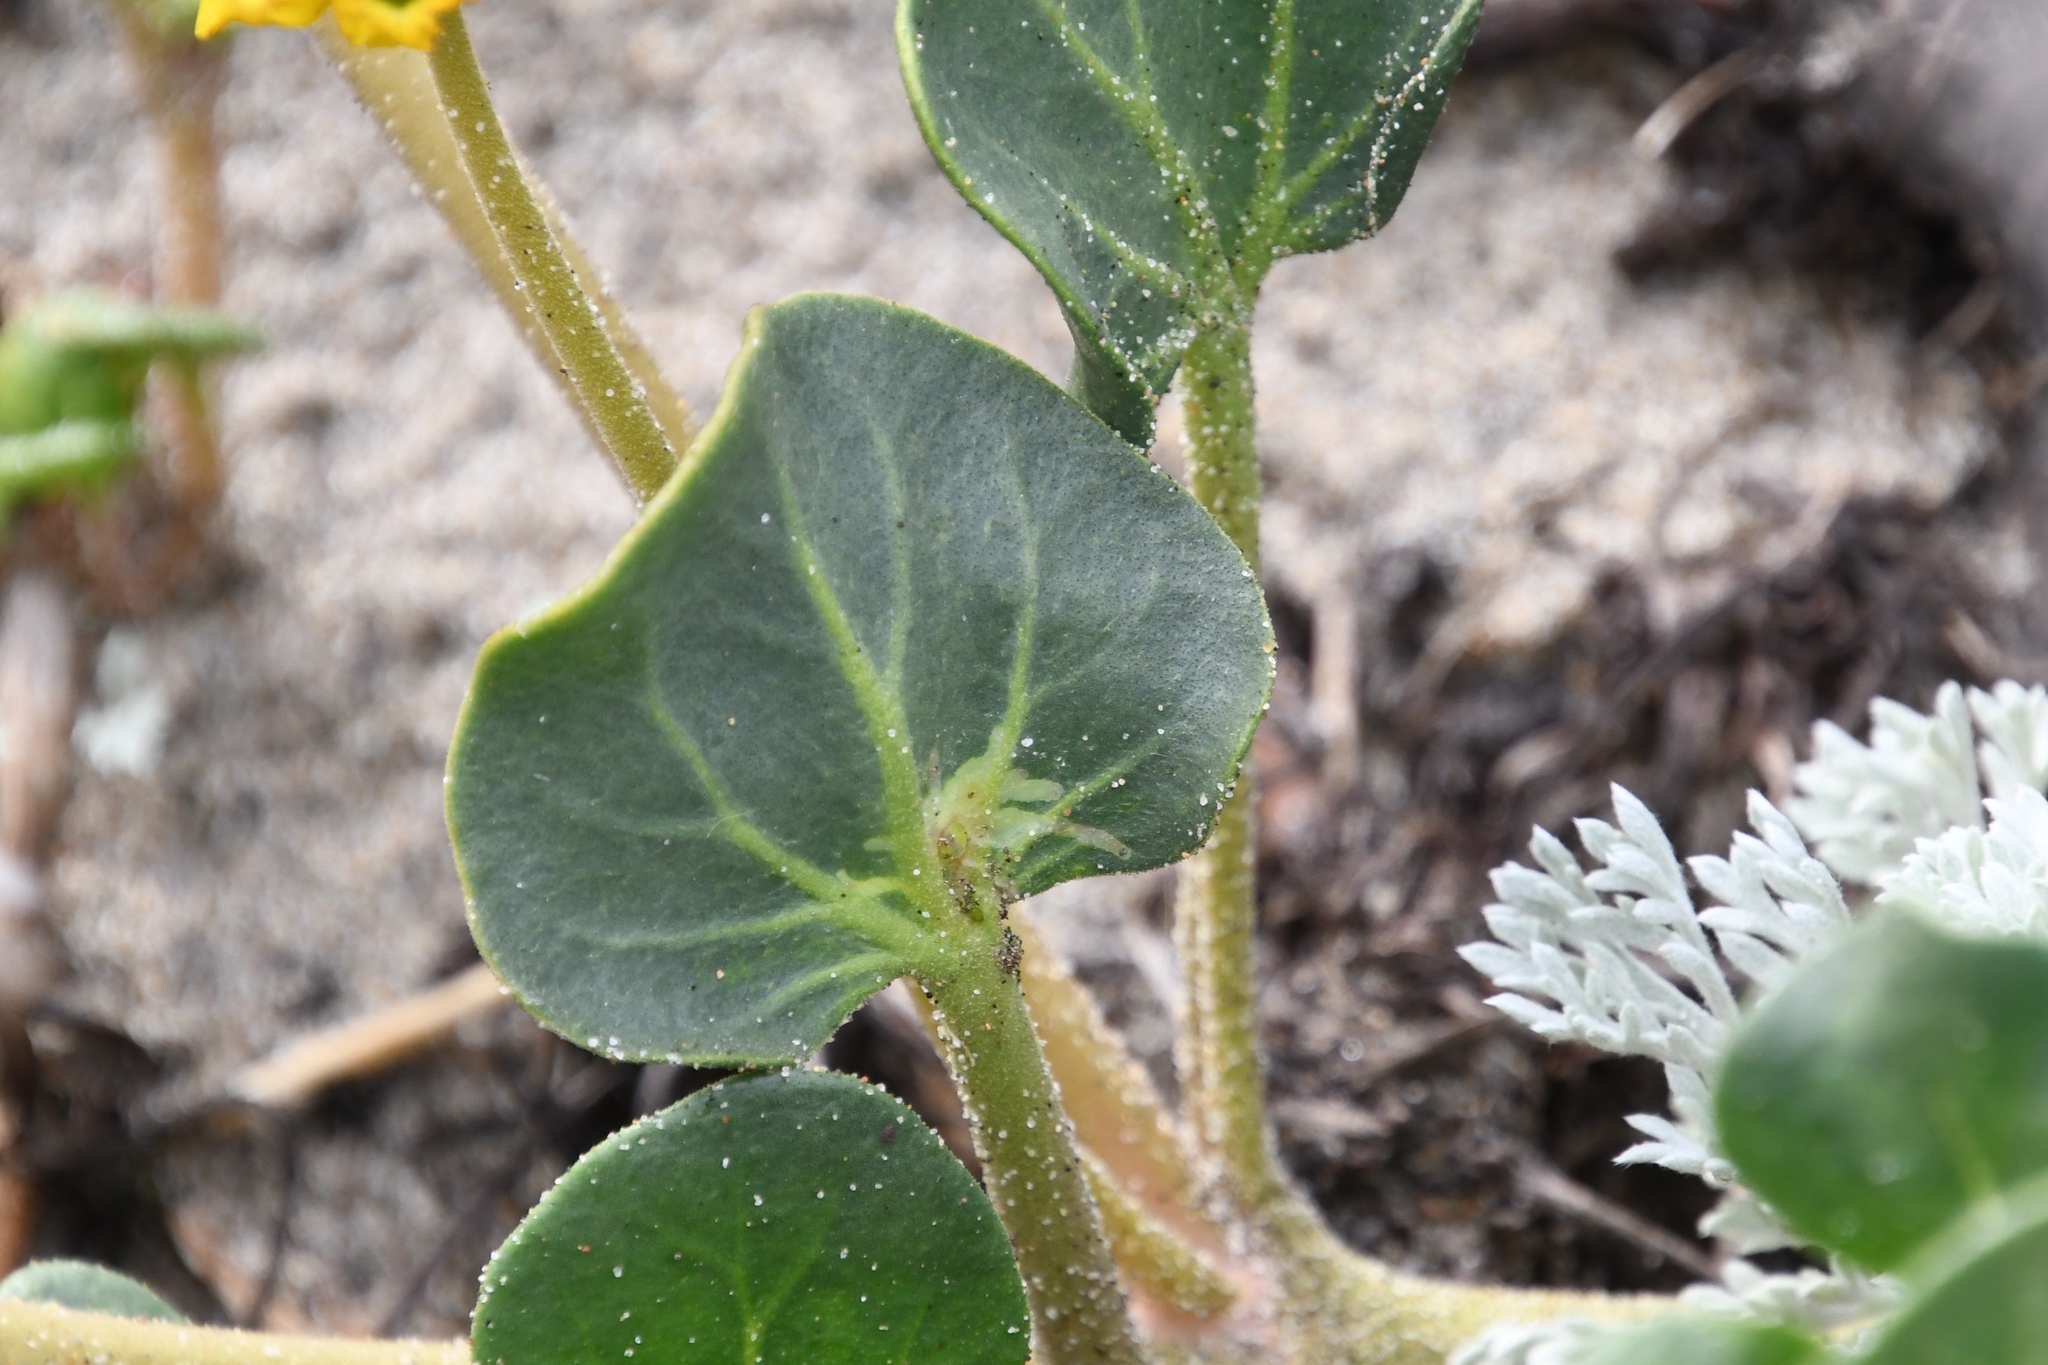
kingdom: Plantae
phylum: Tracheophyta
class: Magnoliopsida
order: Caryophyllales
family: Nyctaginaceae
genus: Abronia
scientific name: Abronia latifolia
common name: Yellow sand-verbena
